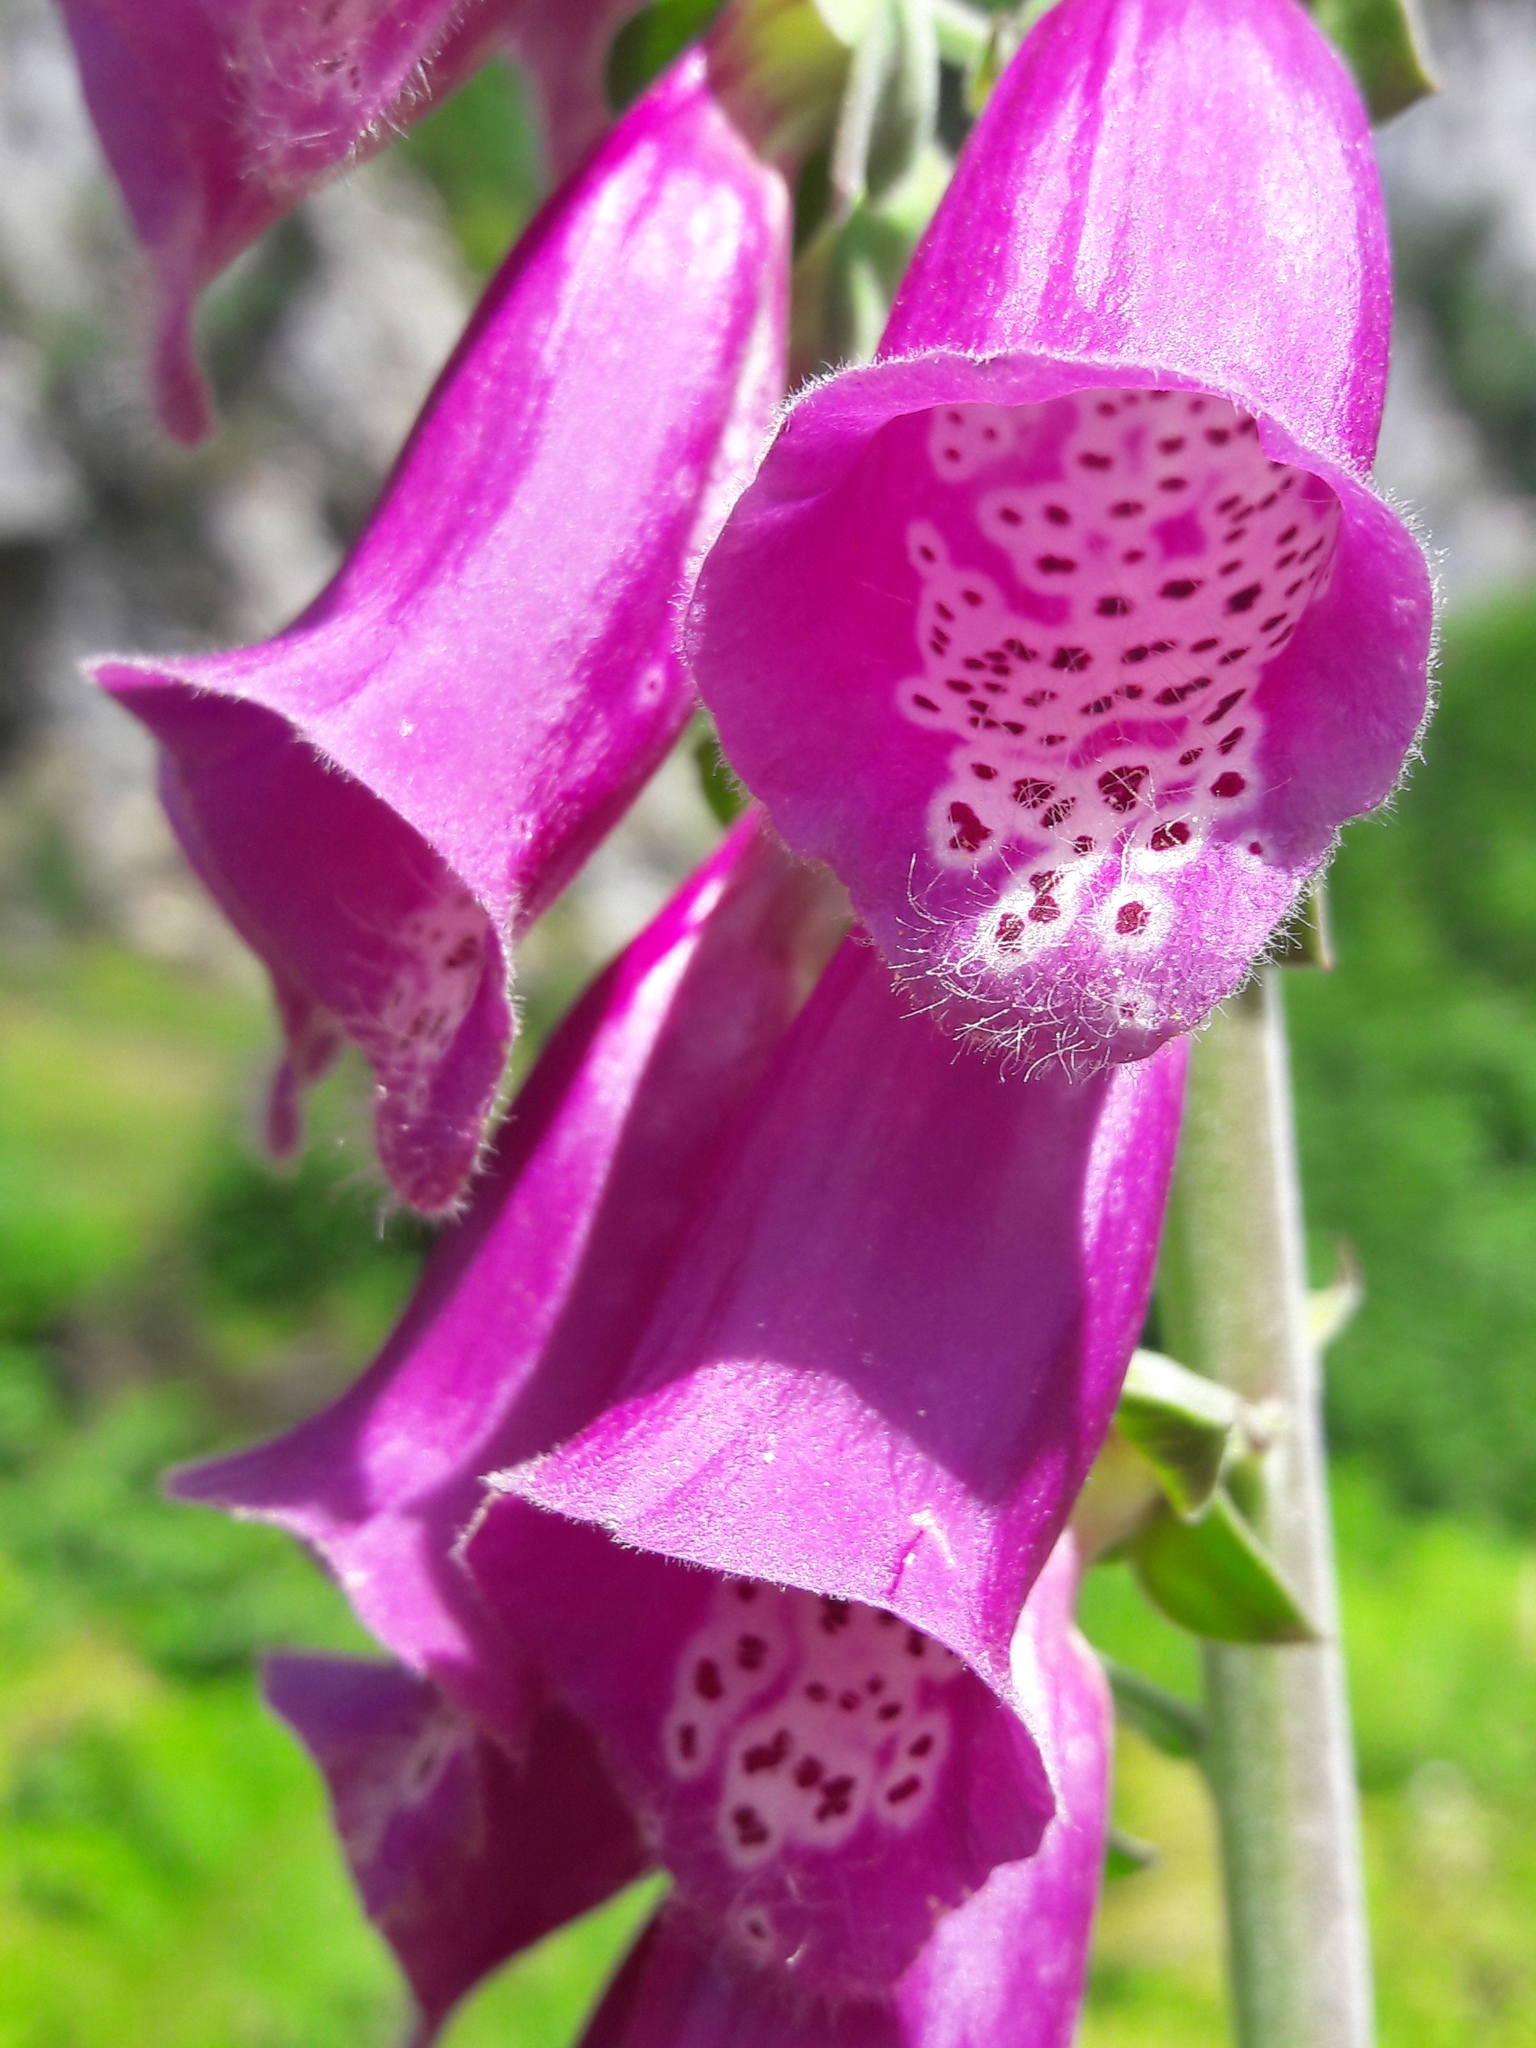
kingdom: Plantae
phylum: Tracheophyta
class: Magnoliopsida
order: Lamiales
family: Plantaginaceae
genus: Digitalis
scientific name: Digitalis purpurea
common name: Foxglove
